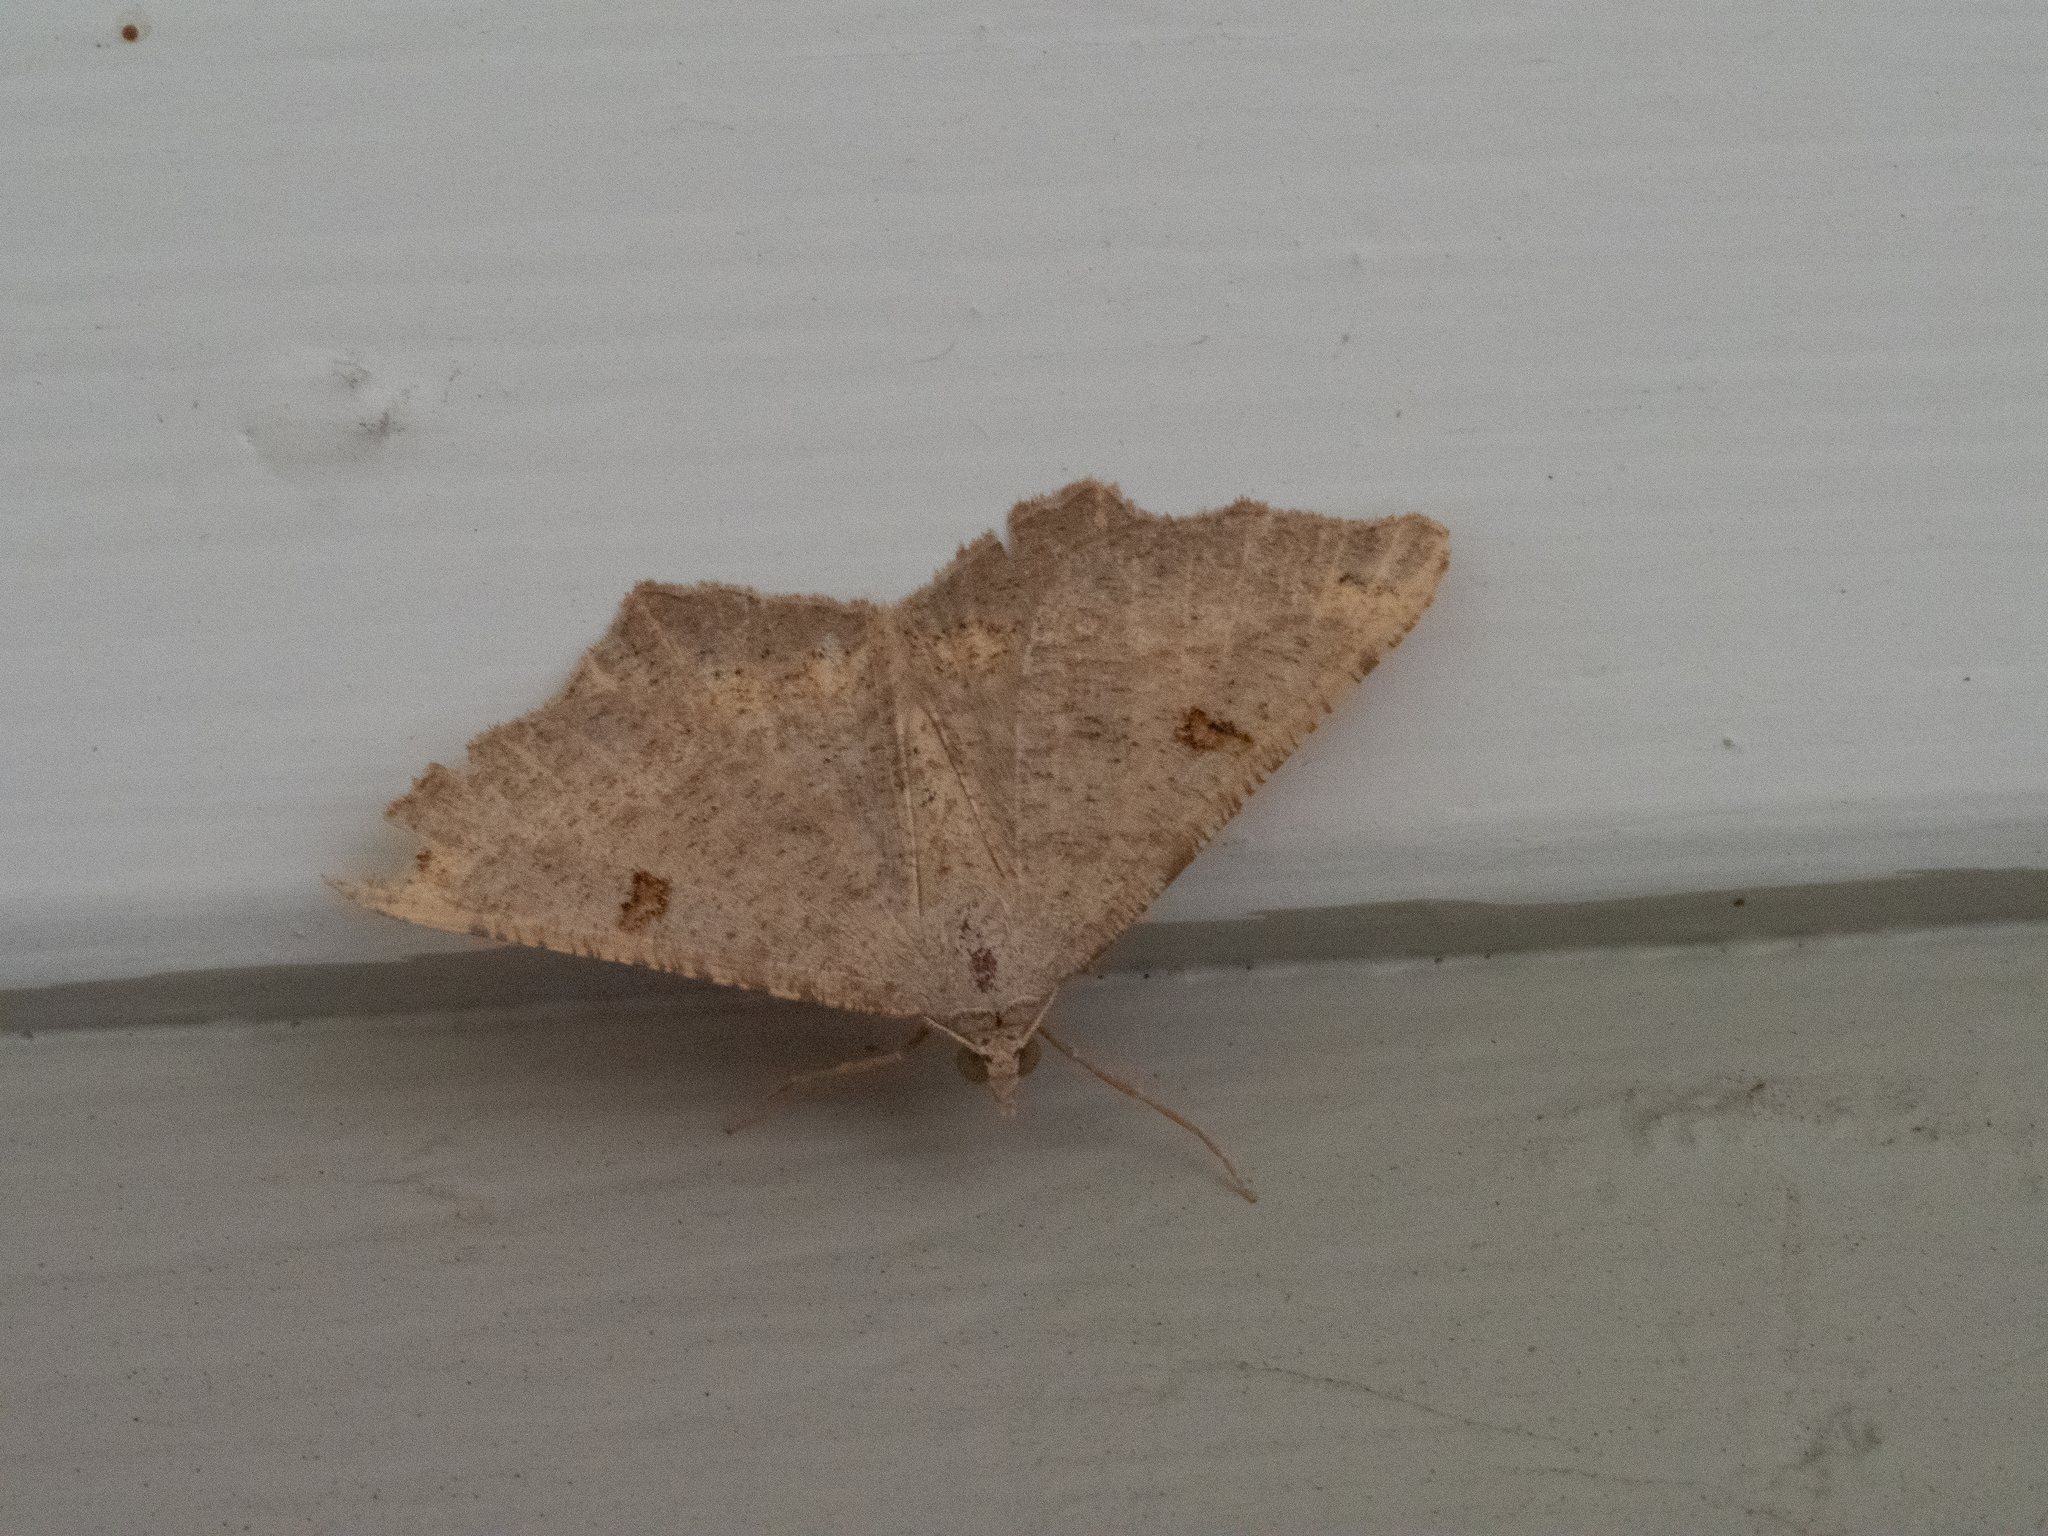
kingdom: Animalia
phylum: Arthropoda
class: Insecta
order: Lepidoptera
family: Geometridae
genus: Dissomorphia
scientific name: Dissomorphia australiaria
